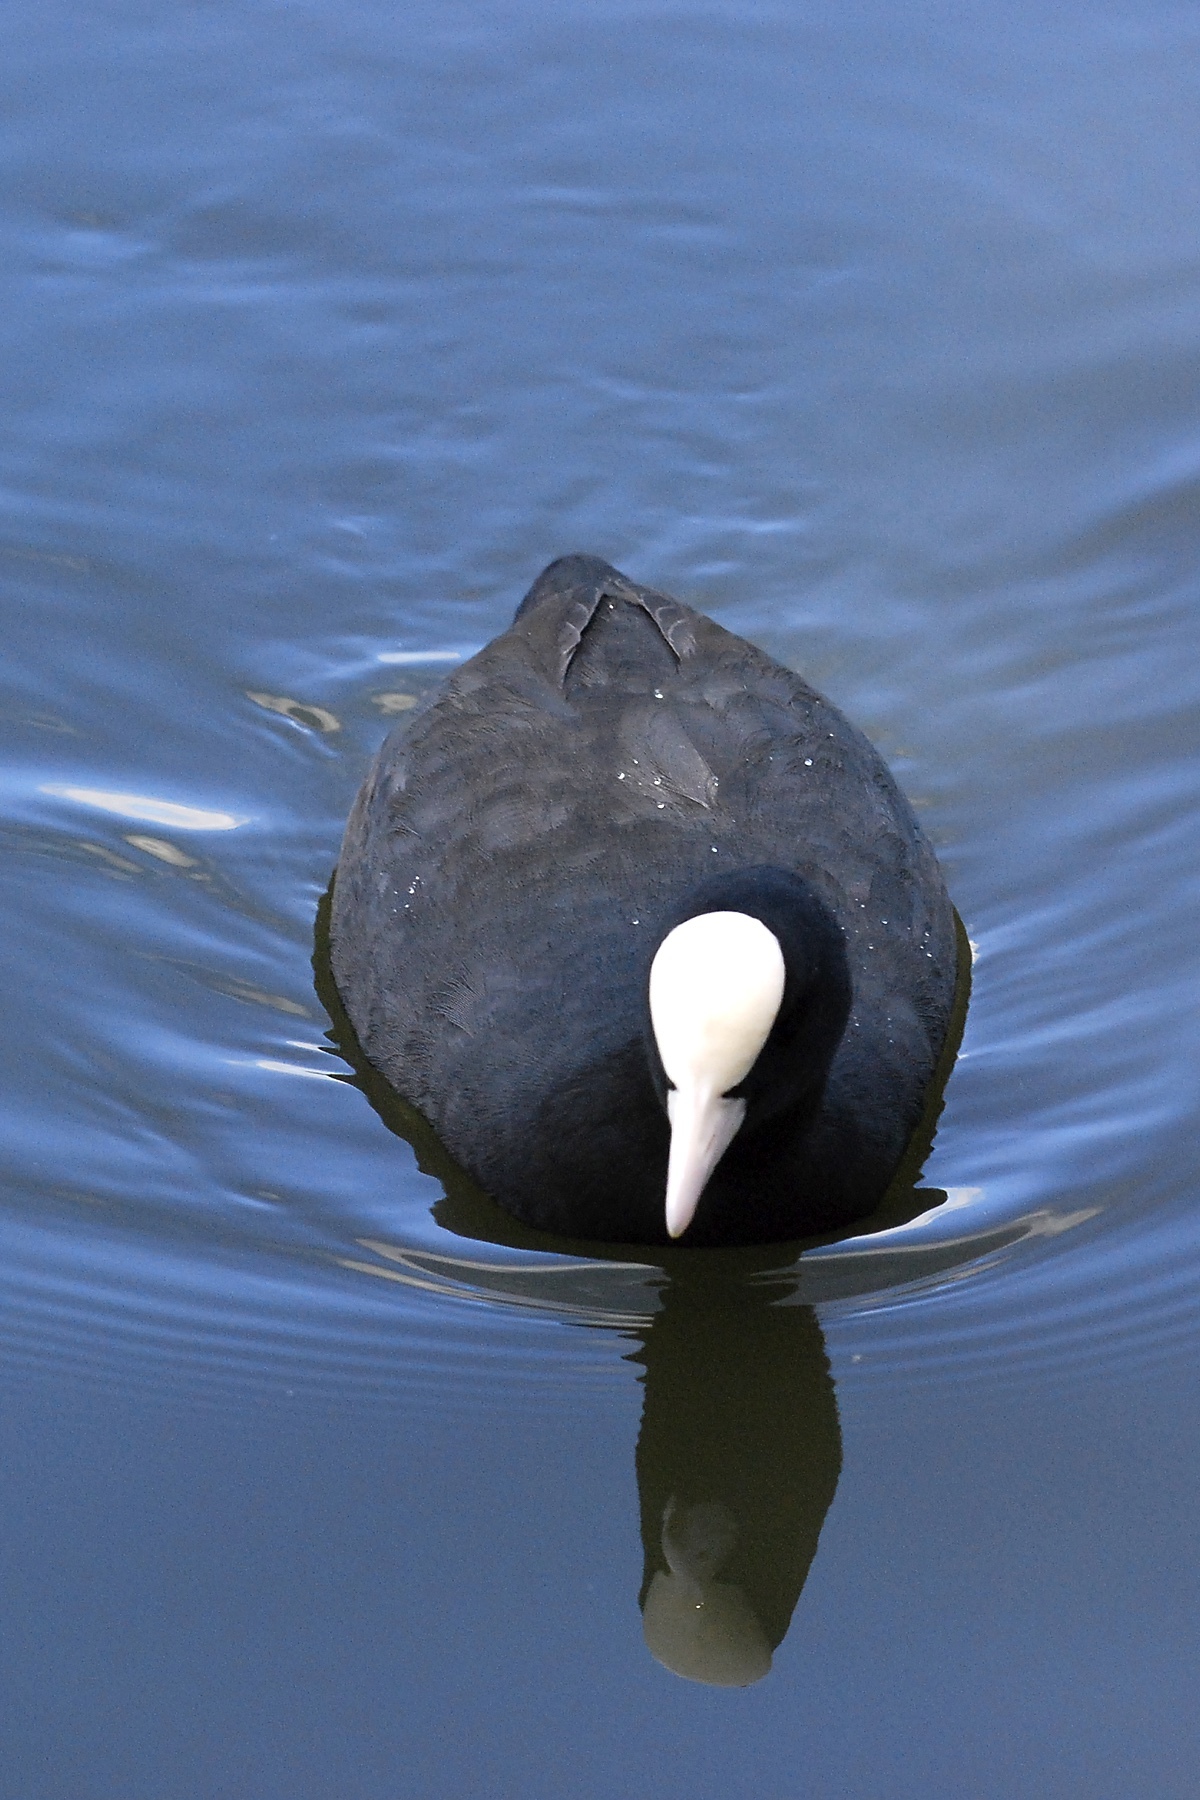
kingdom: Animalia
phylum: Chordata
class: Aves
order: Gruiformes
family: Rallidae
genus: Fulica
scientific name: Fulica atra
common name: Eurasian coot
